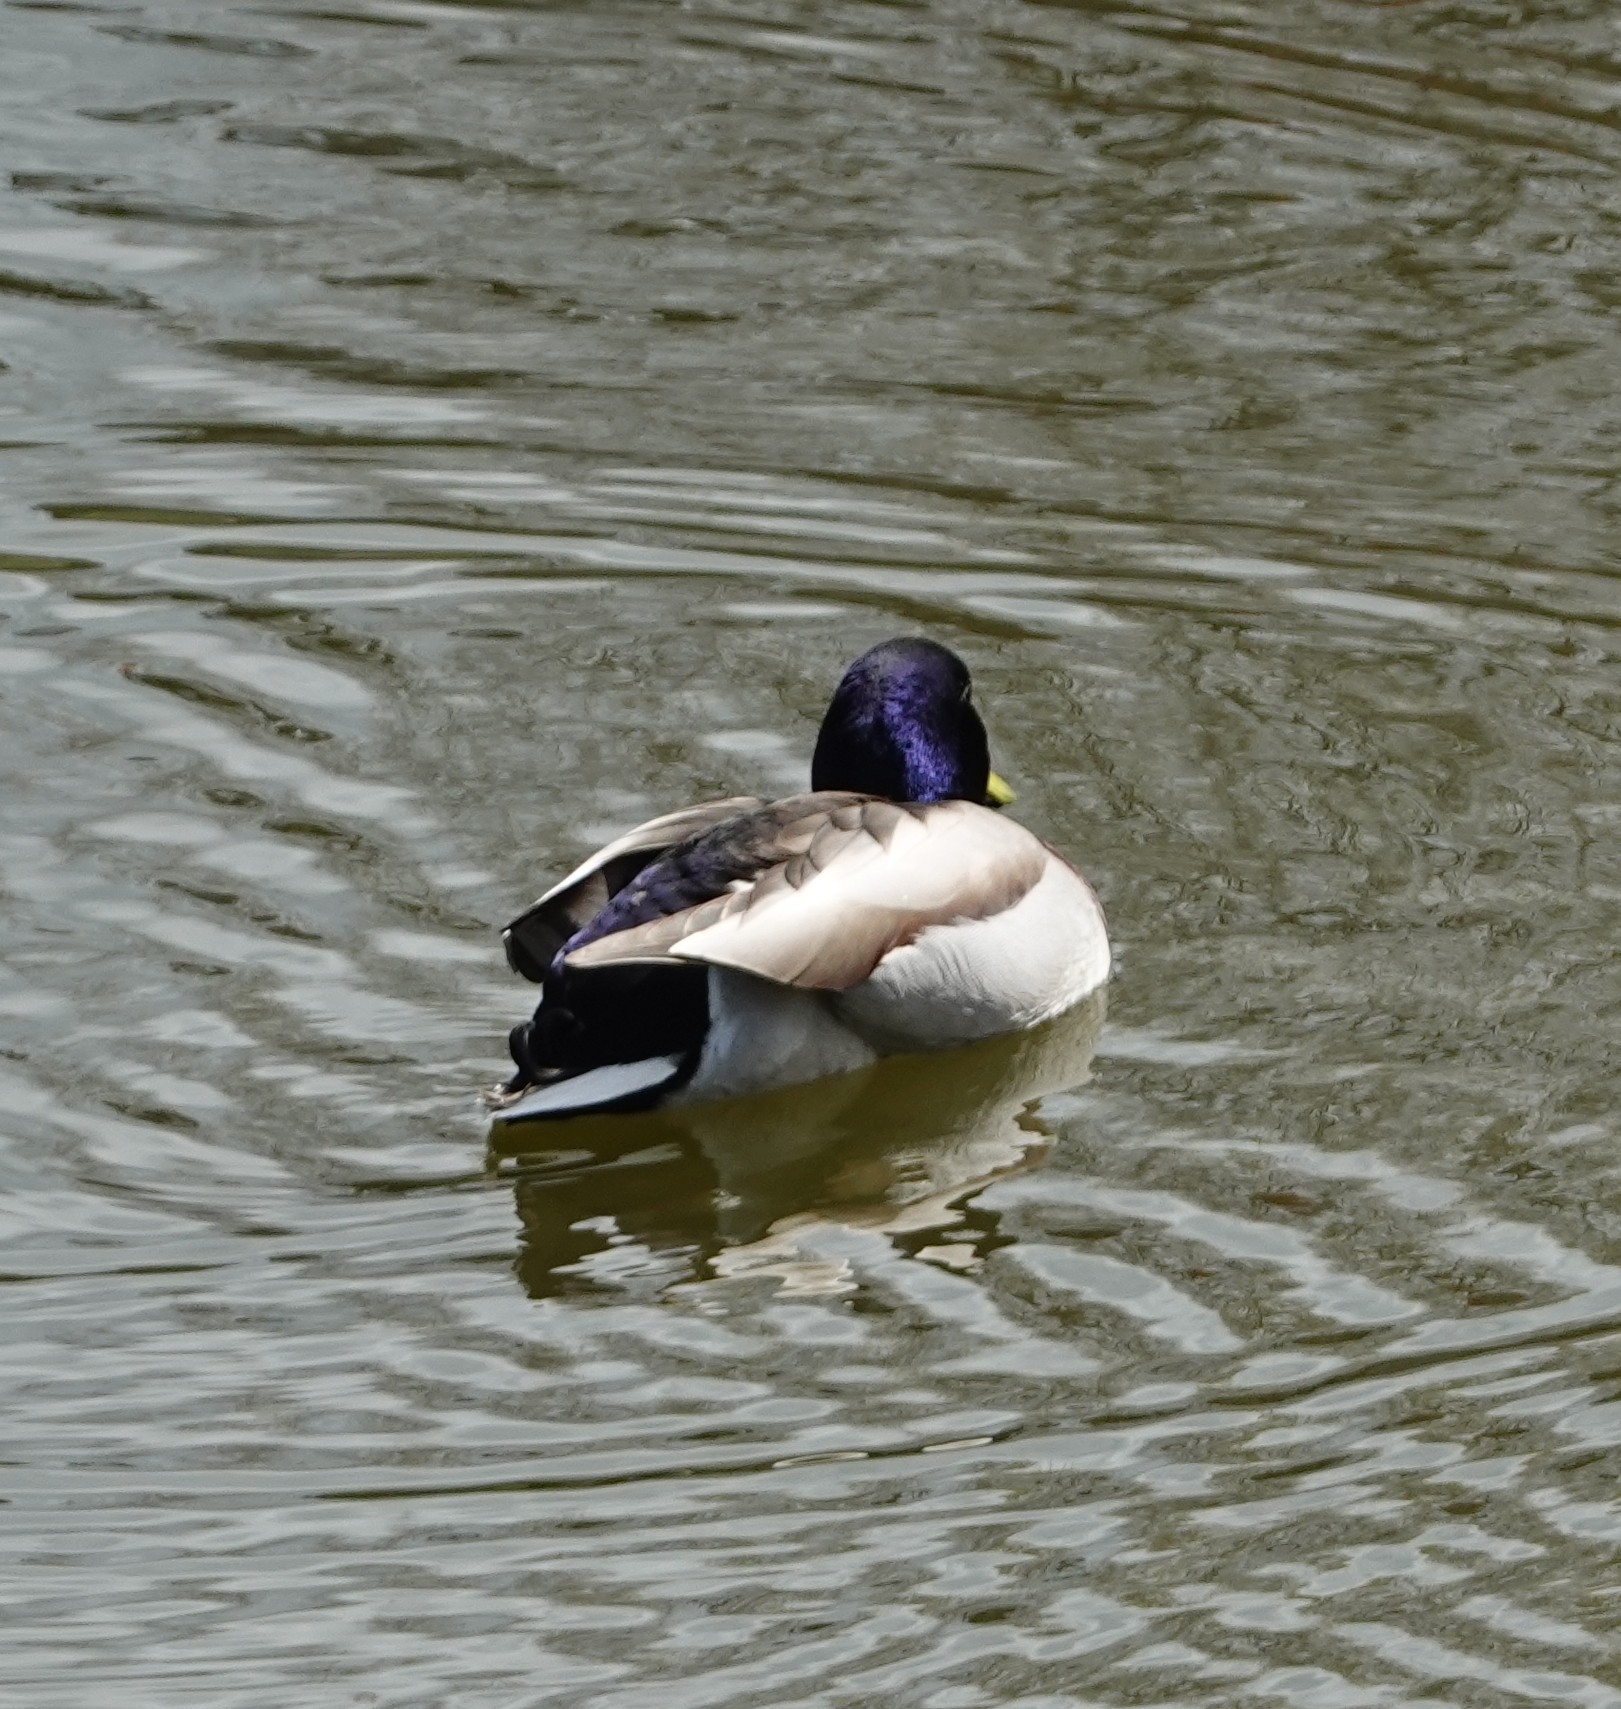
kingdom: Animalia
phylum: Chordata
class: Aves
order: Anseriformes
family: Anatidae
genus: Anas
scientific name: Anas platyrhynchos
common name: Mallard
